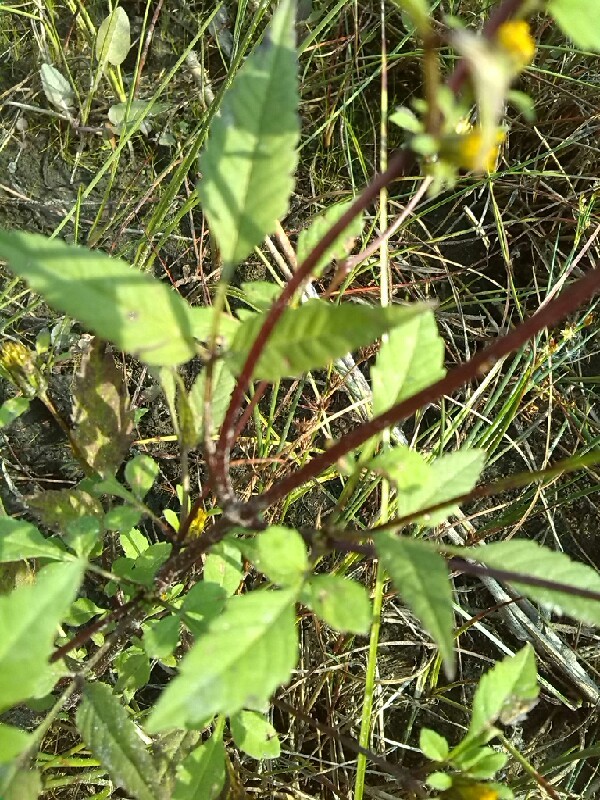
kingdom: Plantae
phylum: Tracheophyta
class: Magnoliopsida
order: Asterales
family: Asteraceae
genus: Bidens
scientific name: Bidens frondosa
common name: Beggarticks
